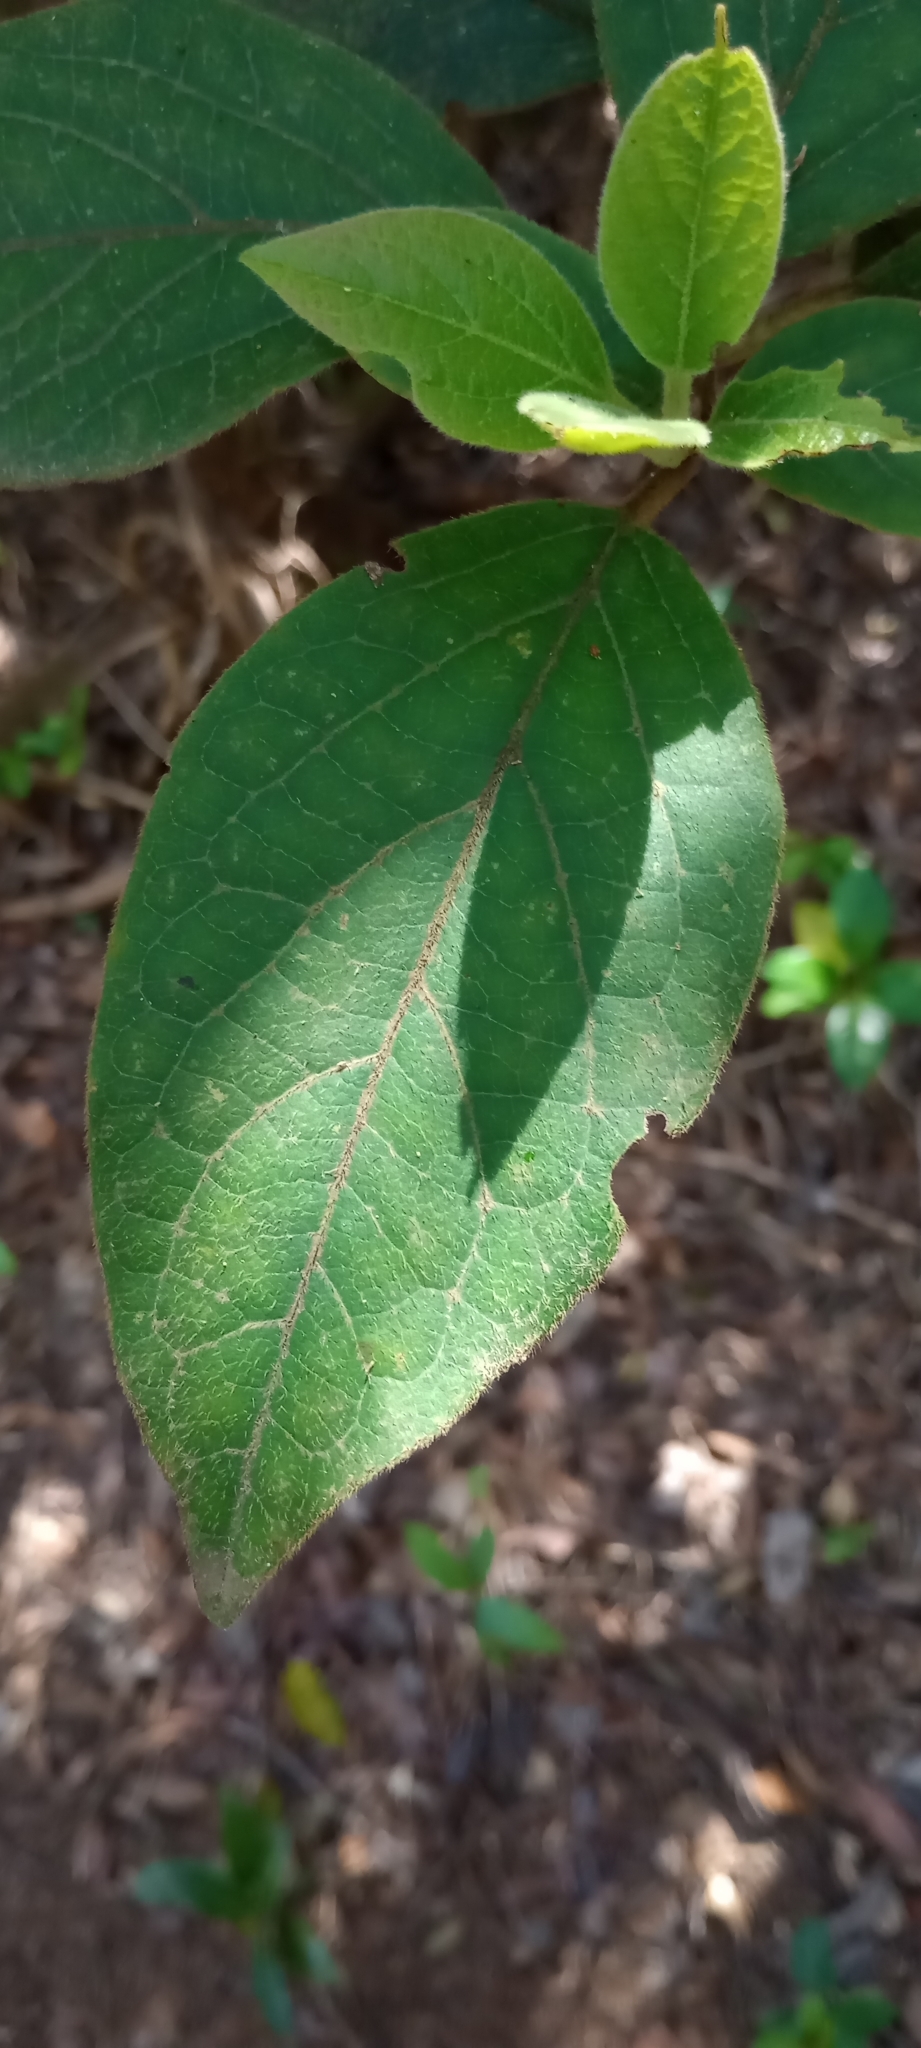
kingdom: Plantae
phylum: Tracheophyta
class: Magnoliopsida
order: Dipsacales
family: Viburnaceae
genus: Viburnum
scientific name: Viburnum rugosum
